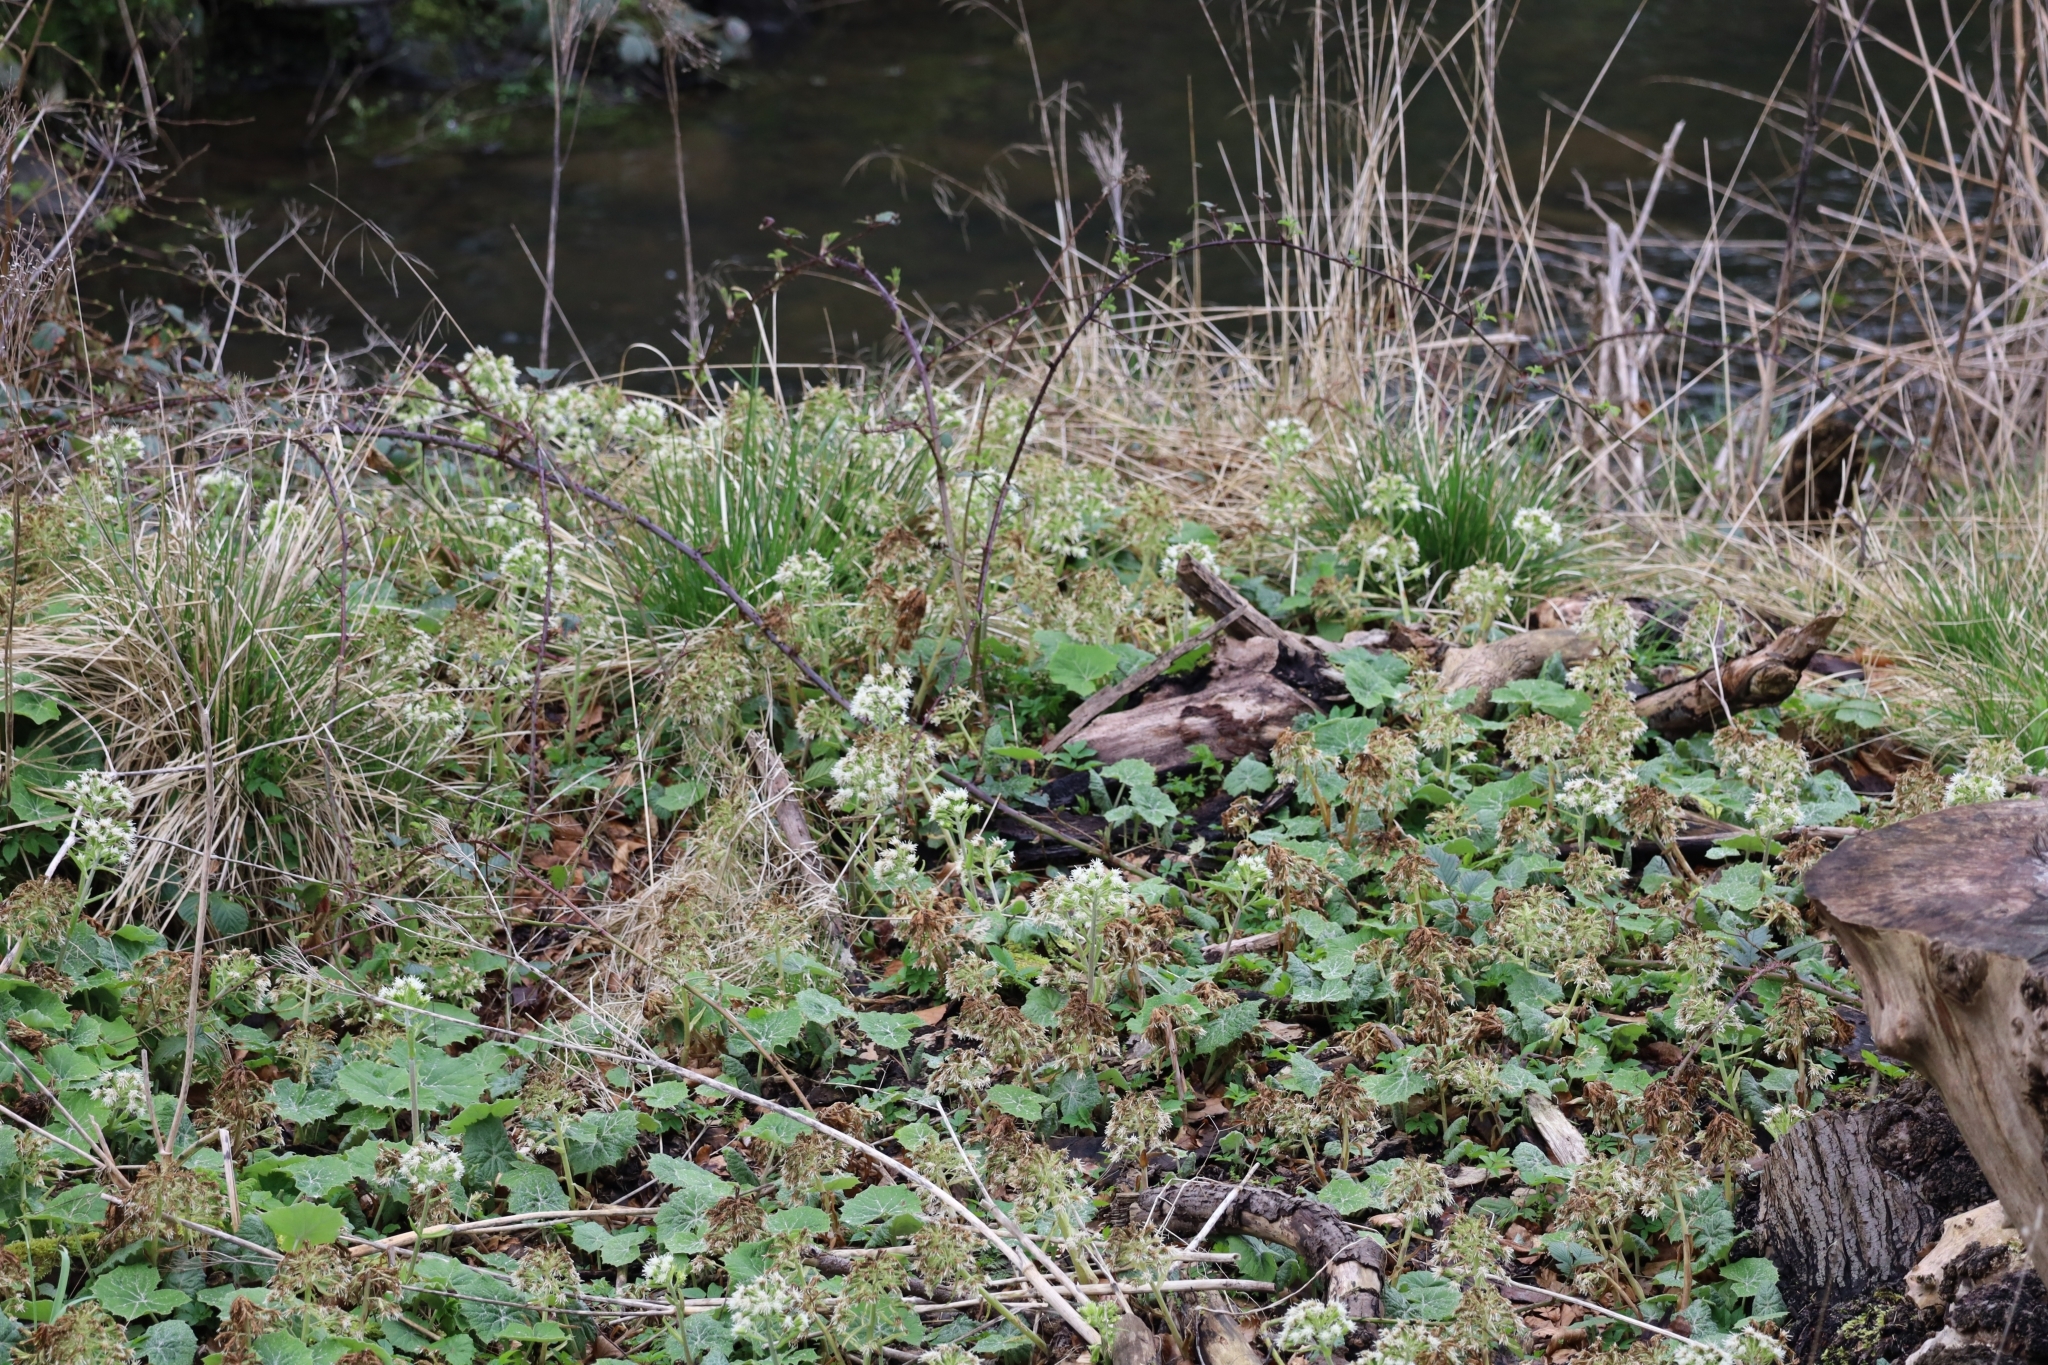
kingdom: Plantae
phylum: Tracheophyta
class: Magnoliopsida
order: Asterales
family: Asteraceae
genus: Petasites
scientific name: Petasites albus
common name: White butterbur
